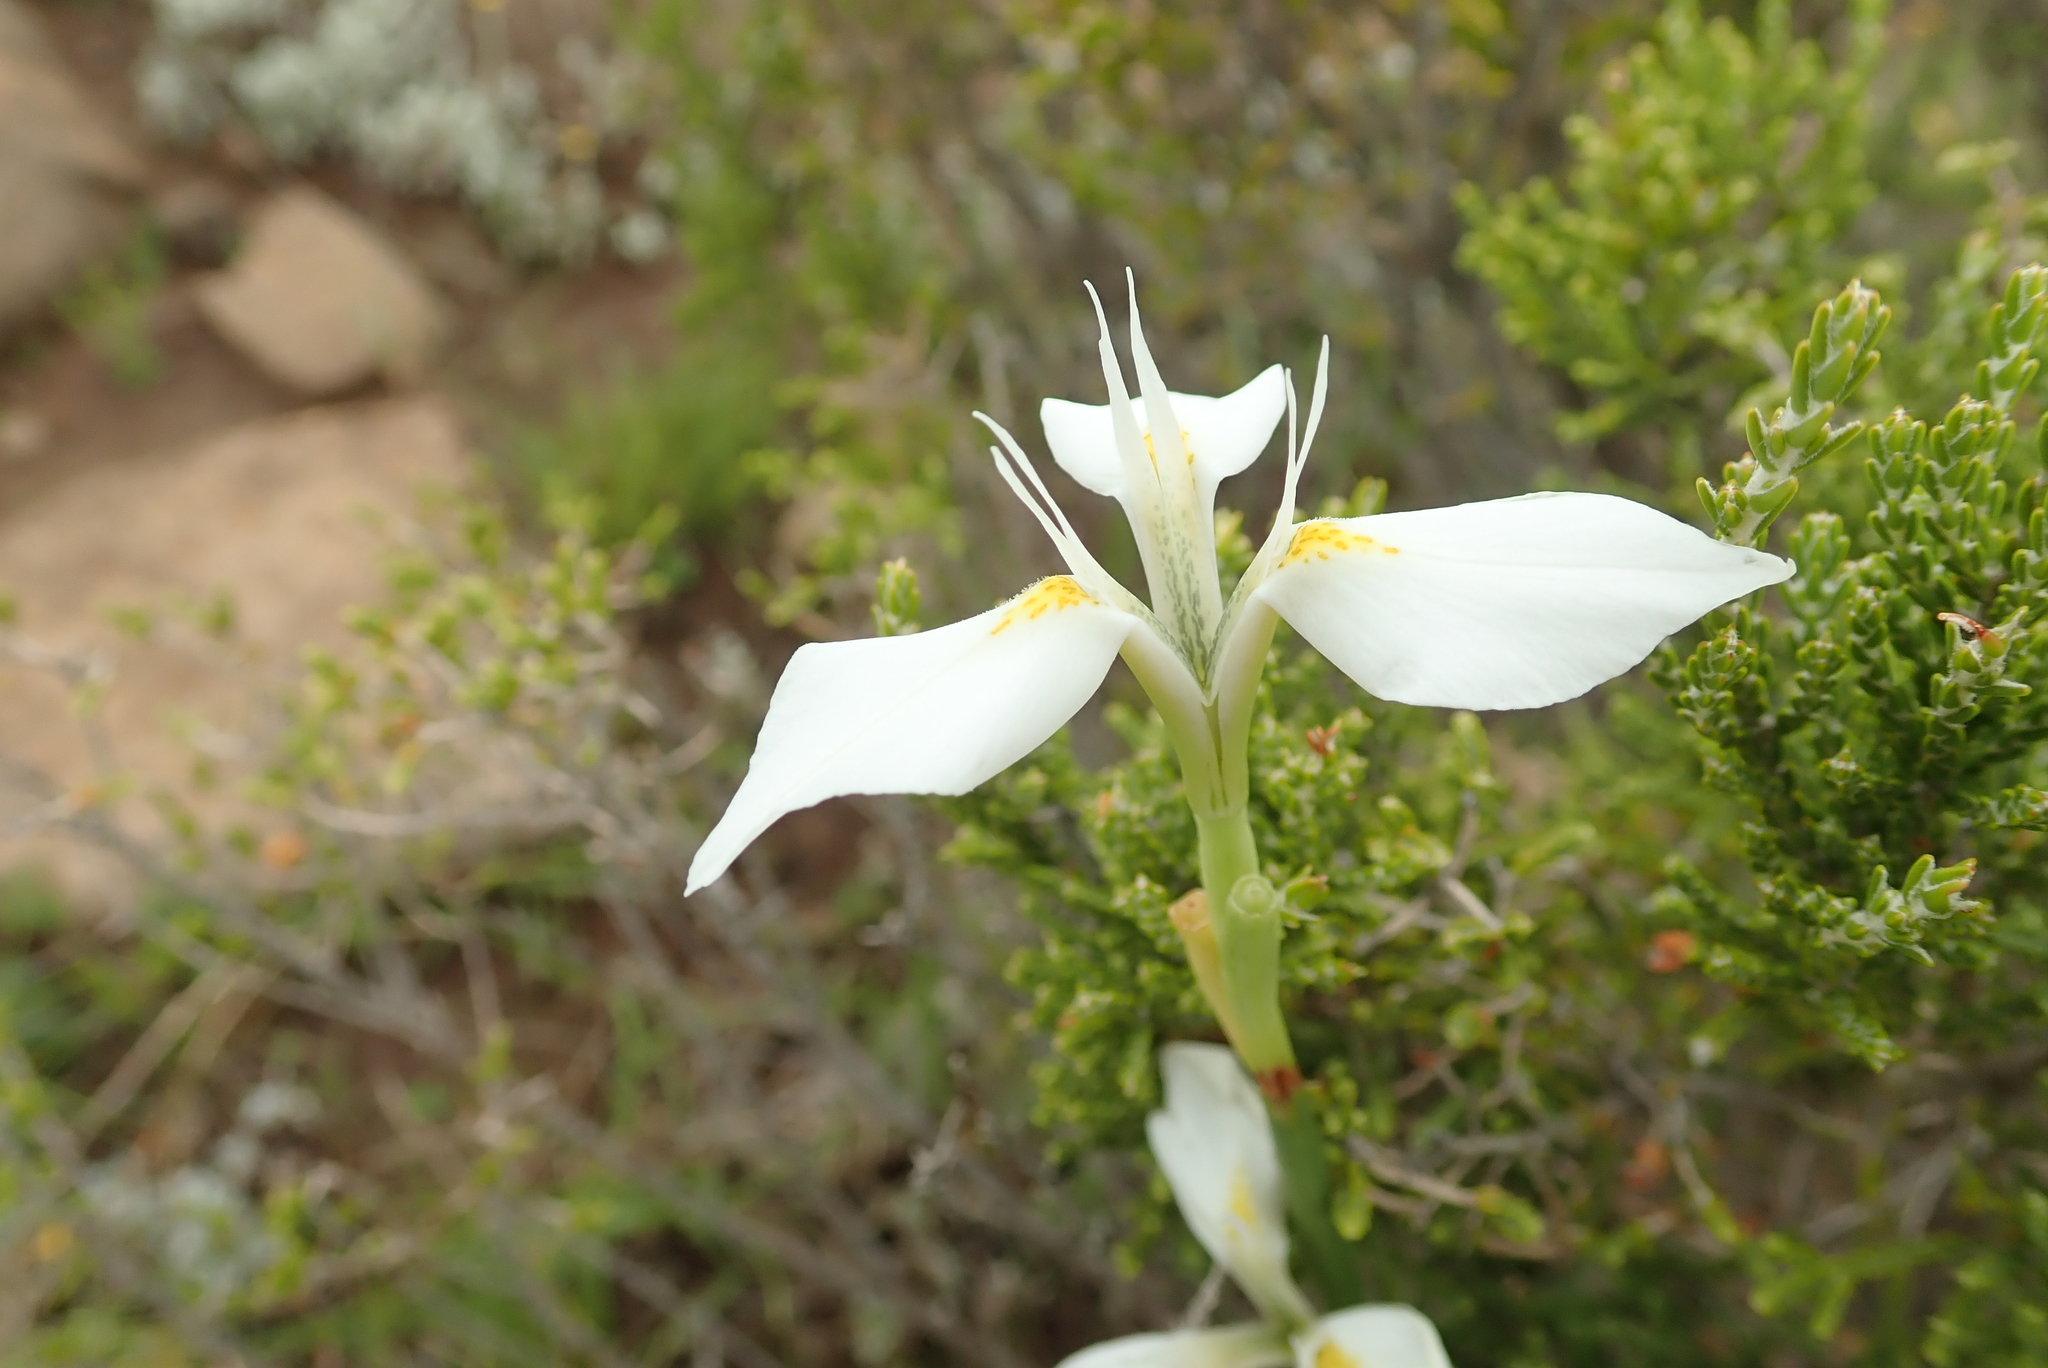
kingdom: Plantae
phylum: Tracheophyta
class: Liliopsida
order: Asparagales
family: Iridaceae
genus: Moraea
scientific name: Moraea albicuspa
